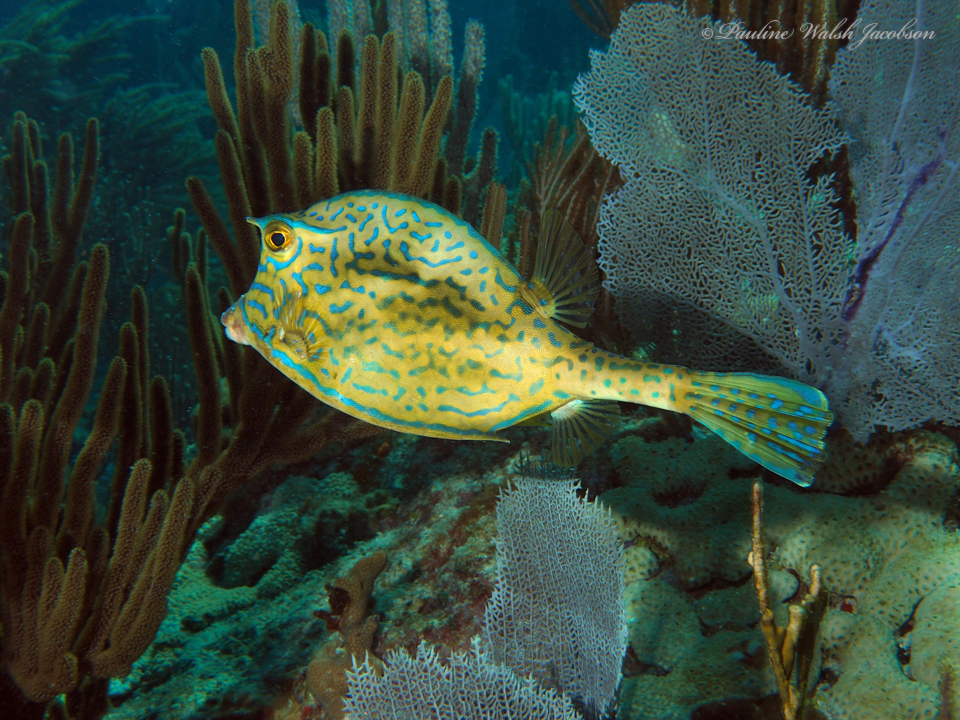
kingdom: Animalia
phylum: Chordata
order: Tetraodontiformes
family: Ostraciidae
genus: Acanthostracion
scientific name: Acanthostracion quadricornis
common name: Scrawled cowfish
